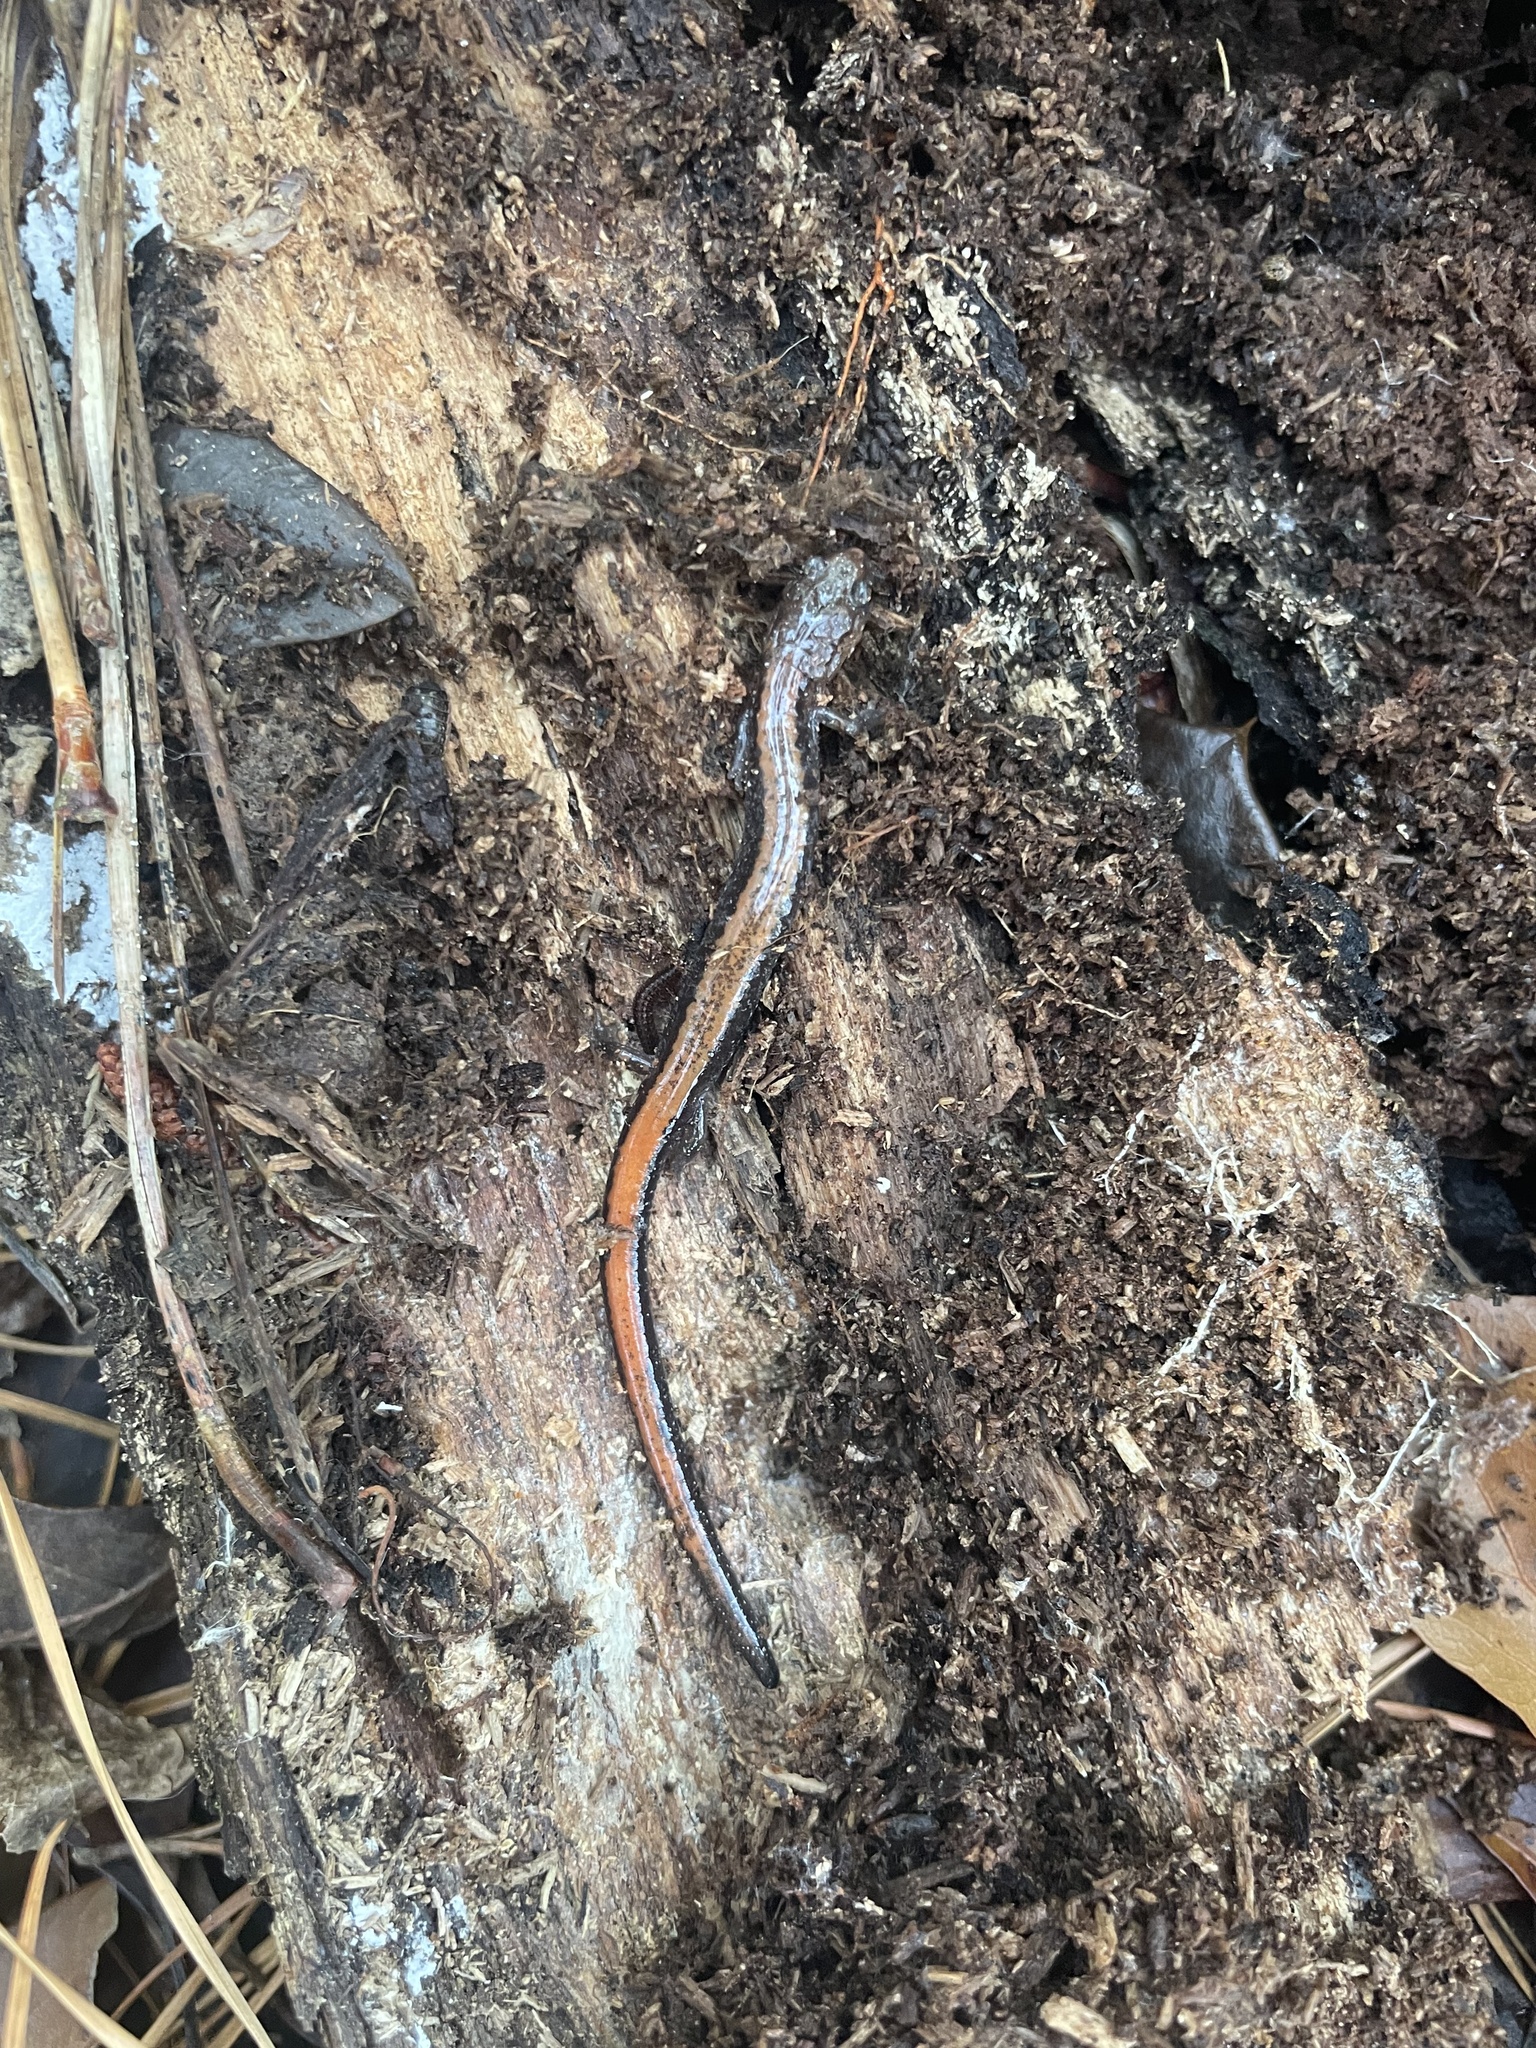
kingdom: Animalia
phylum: Chordata
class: Amphibia
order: Caudata
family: Plethodontidae
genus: Plethodon
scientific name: Plethodon cinereus
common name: Redback salamander
